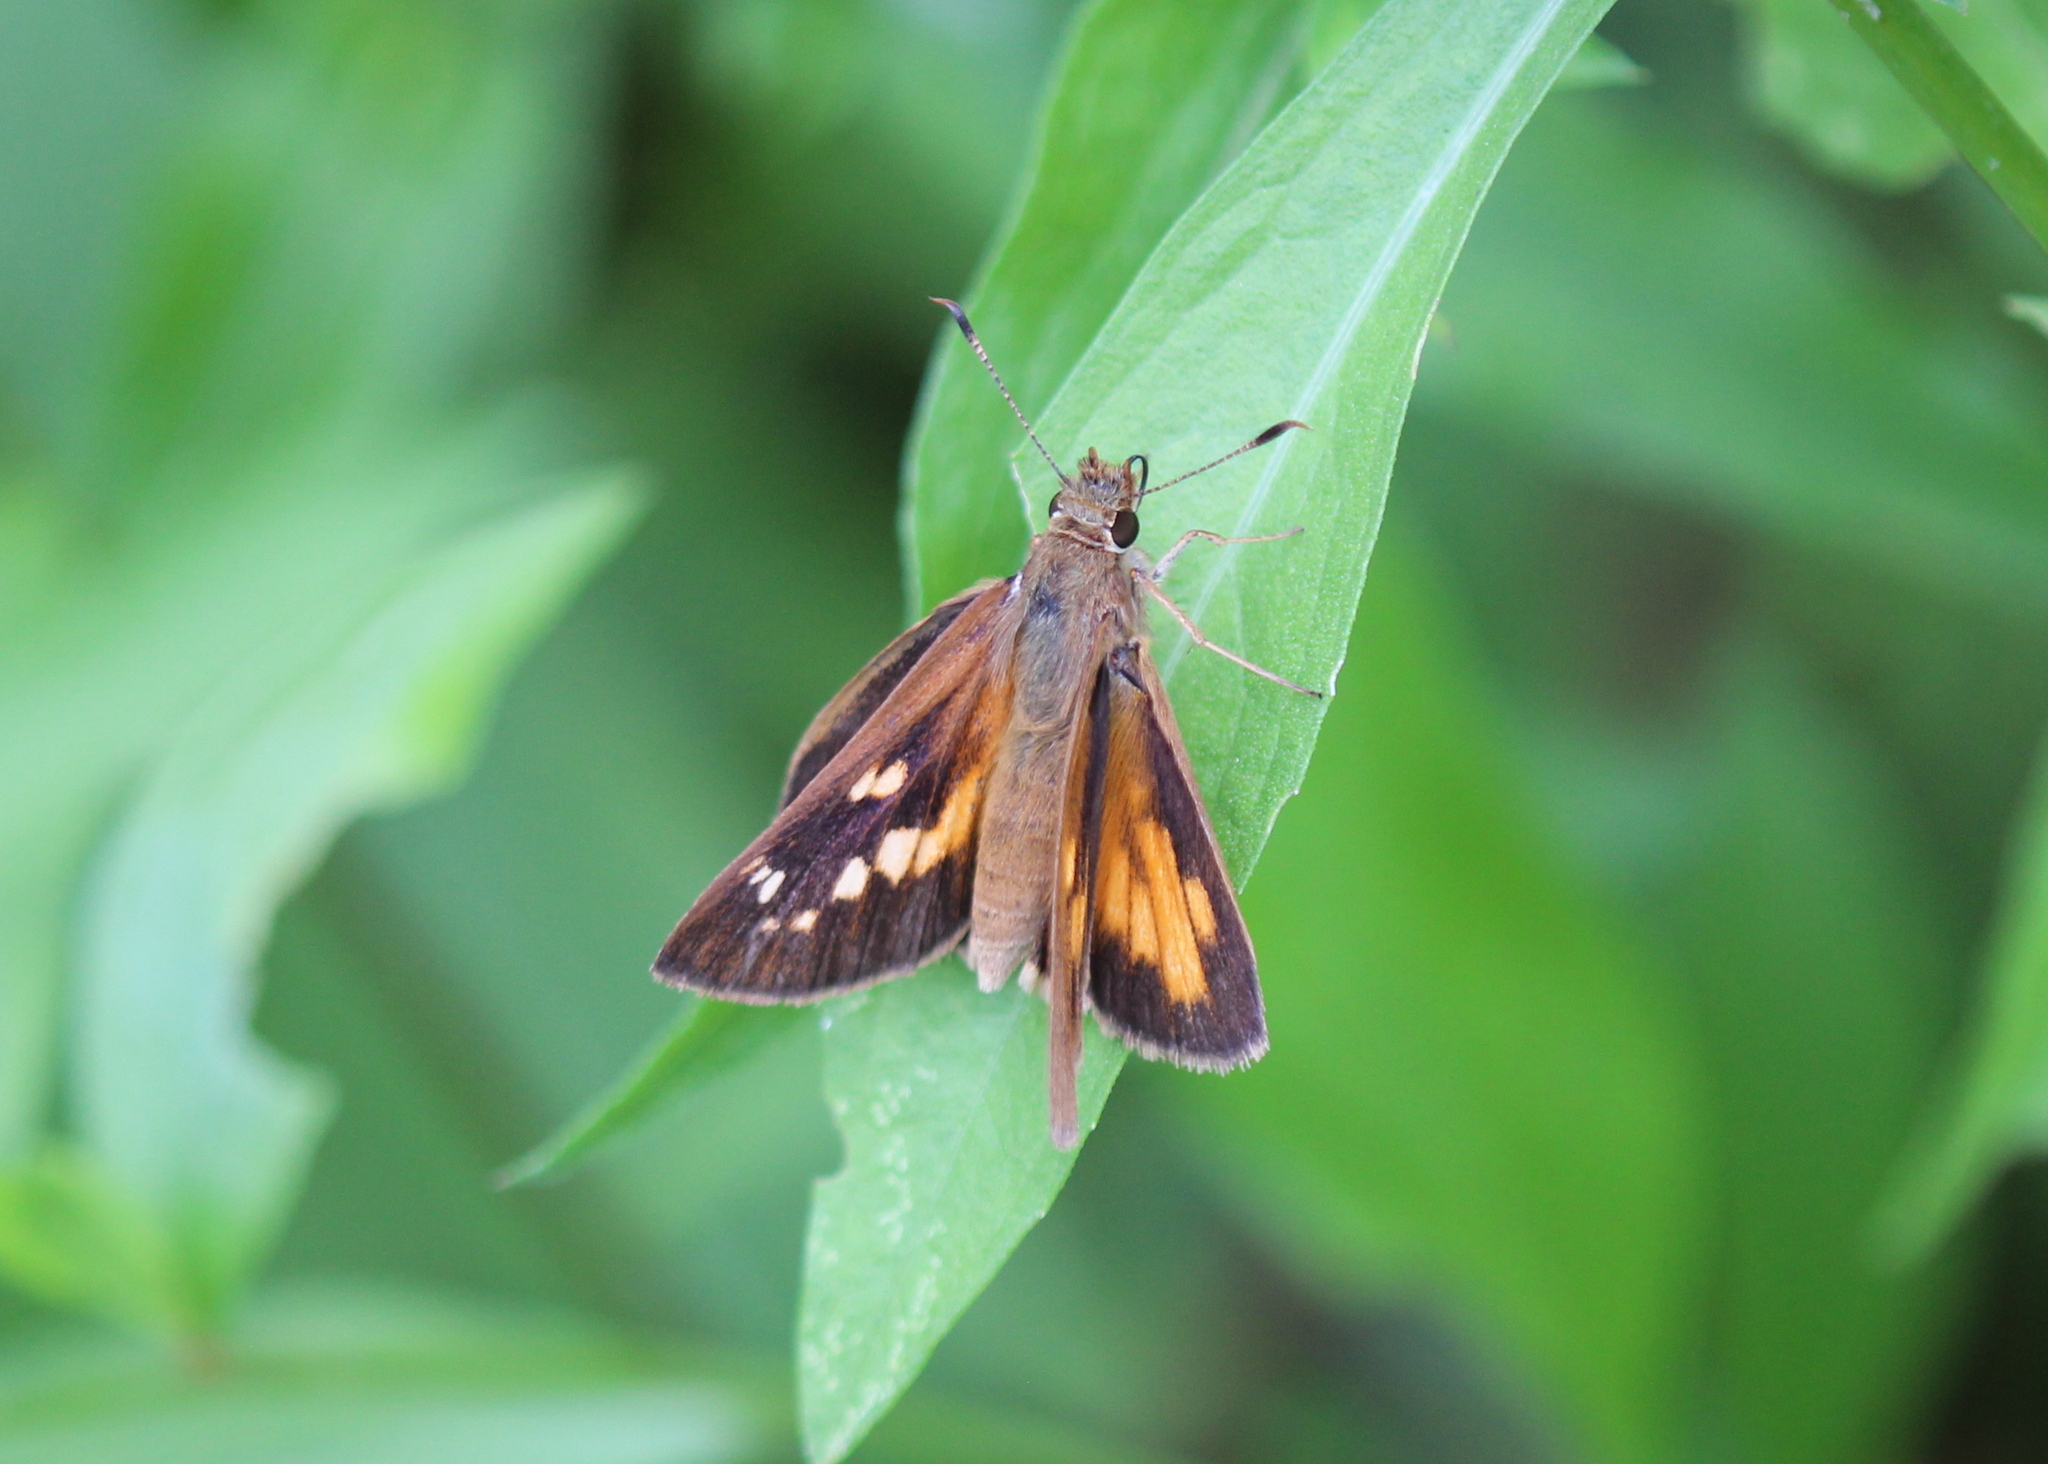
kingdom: Animalia
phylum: Arthropoda
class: Insecta
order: Lepidoptera
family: Hesperiidae
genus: Poanes
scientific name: Poanes viator
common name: Broad-winged skipper
